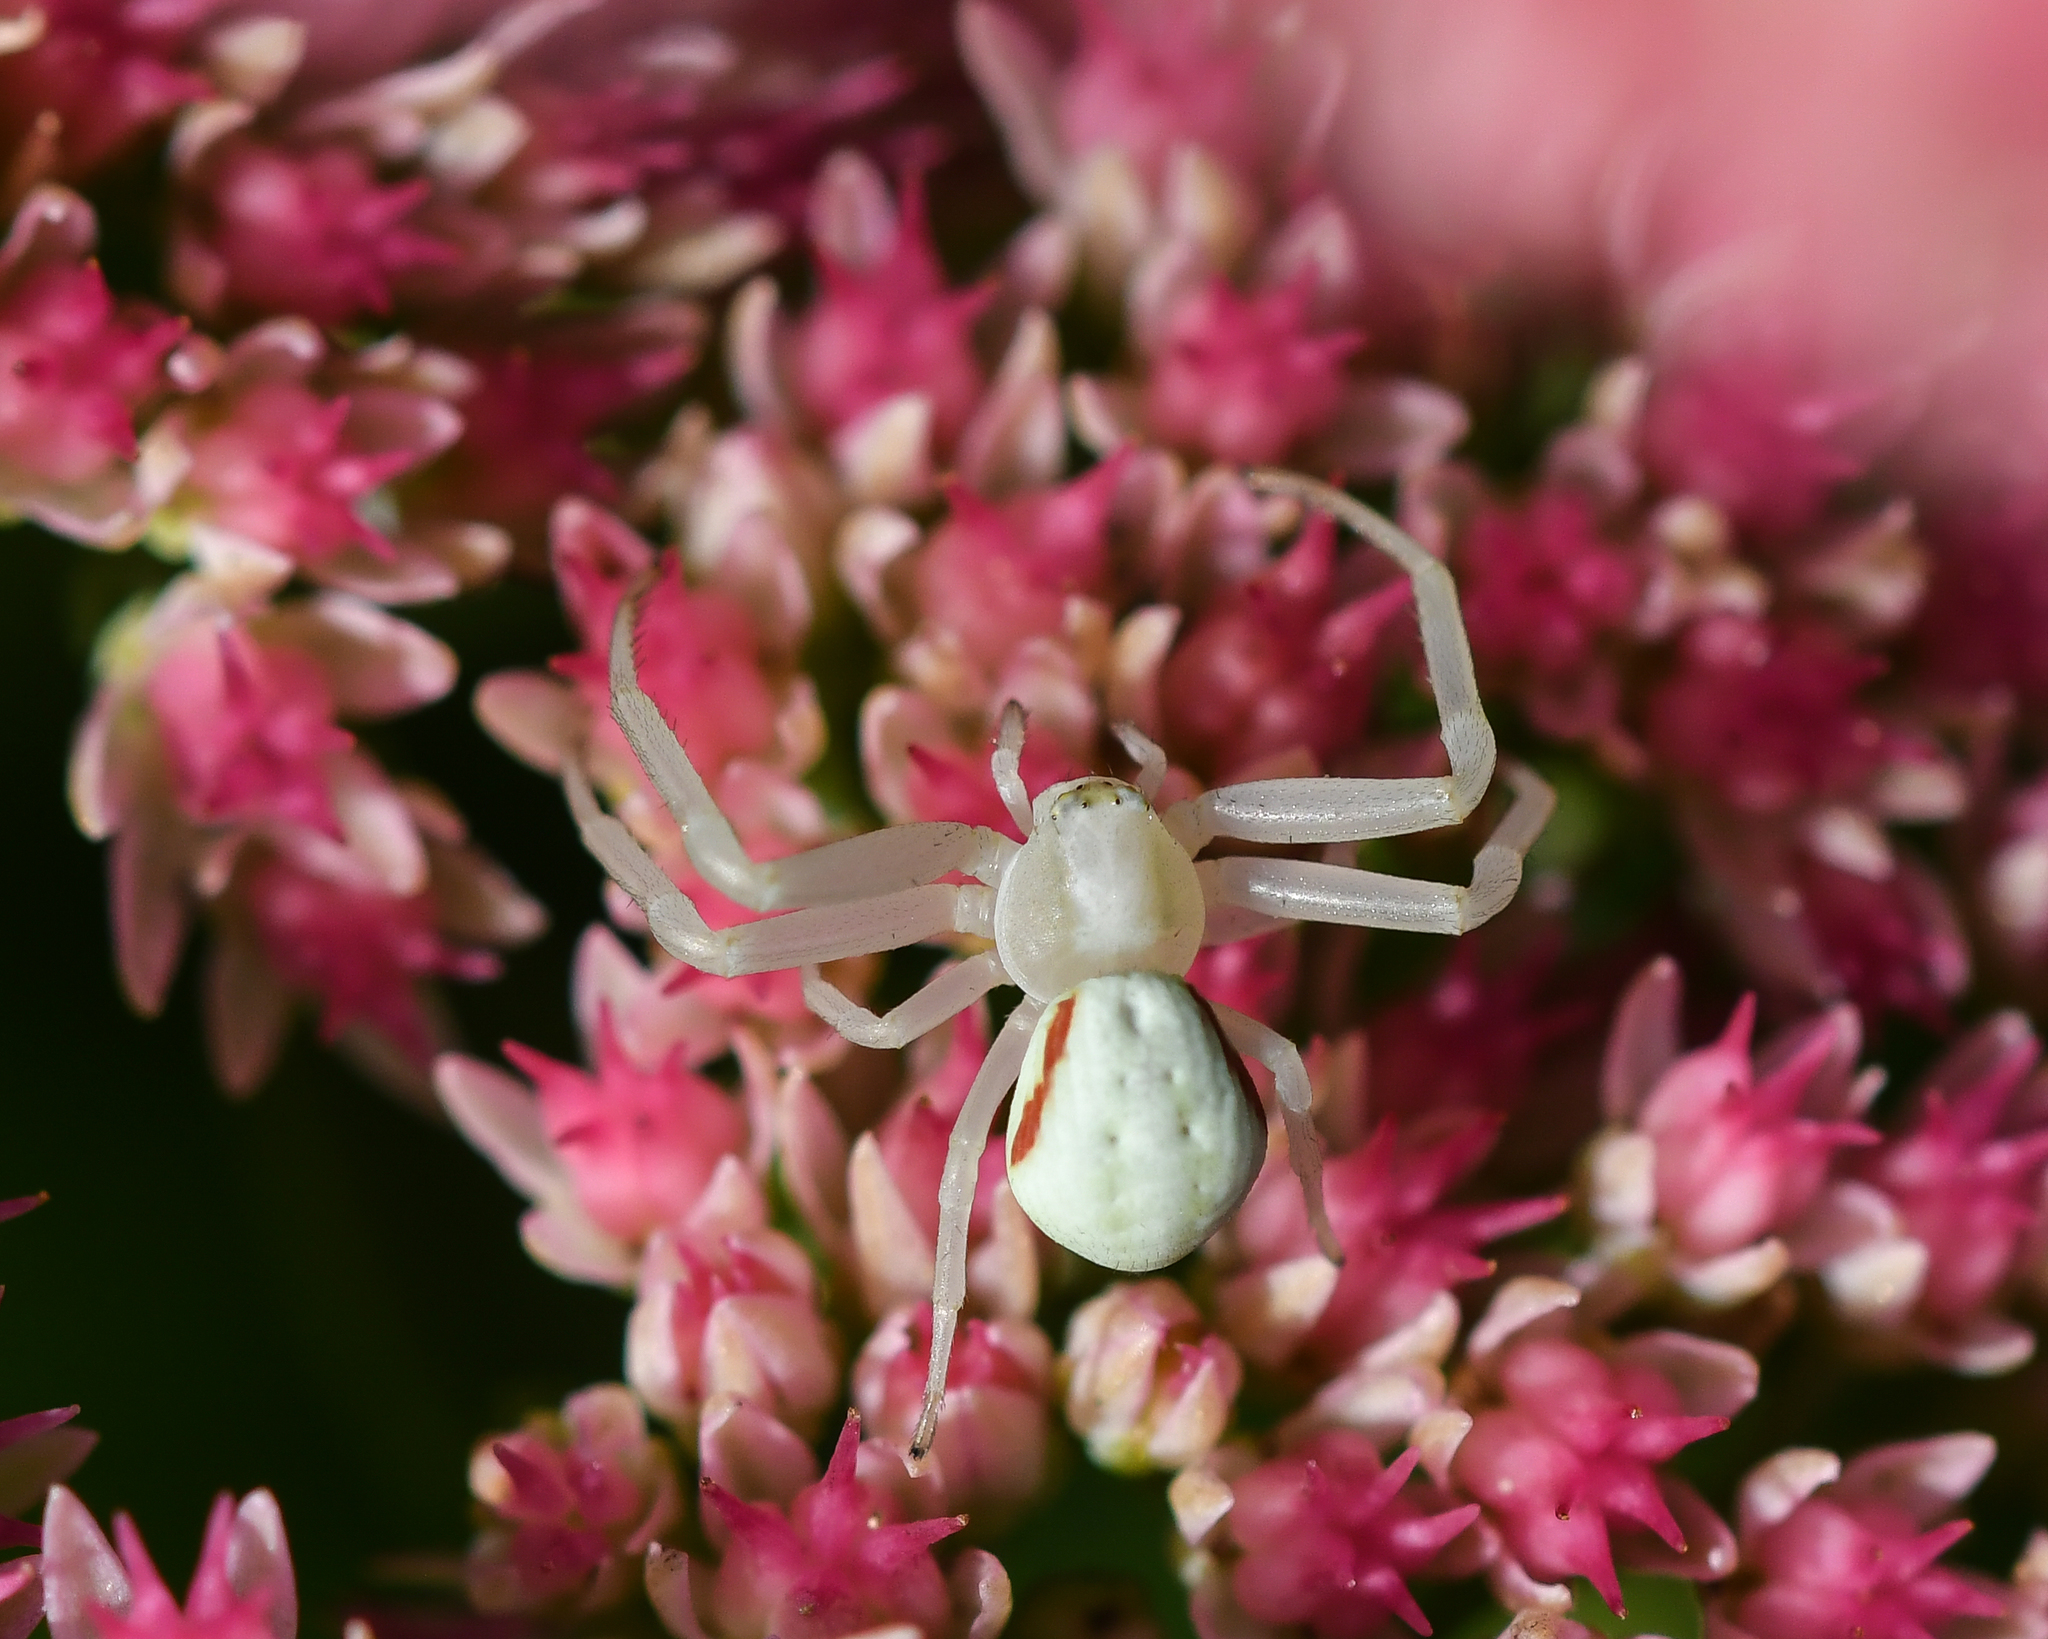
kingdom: Animalia
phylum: Arthropoda
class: Arachnida
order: Araneae
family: Thomisidae
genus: Misumena
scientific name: Misumena vatia
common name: Goldenrod crab spider
